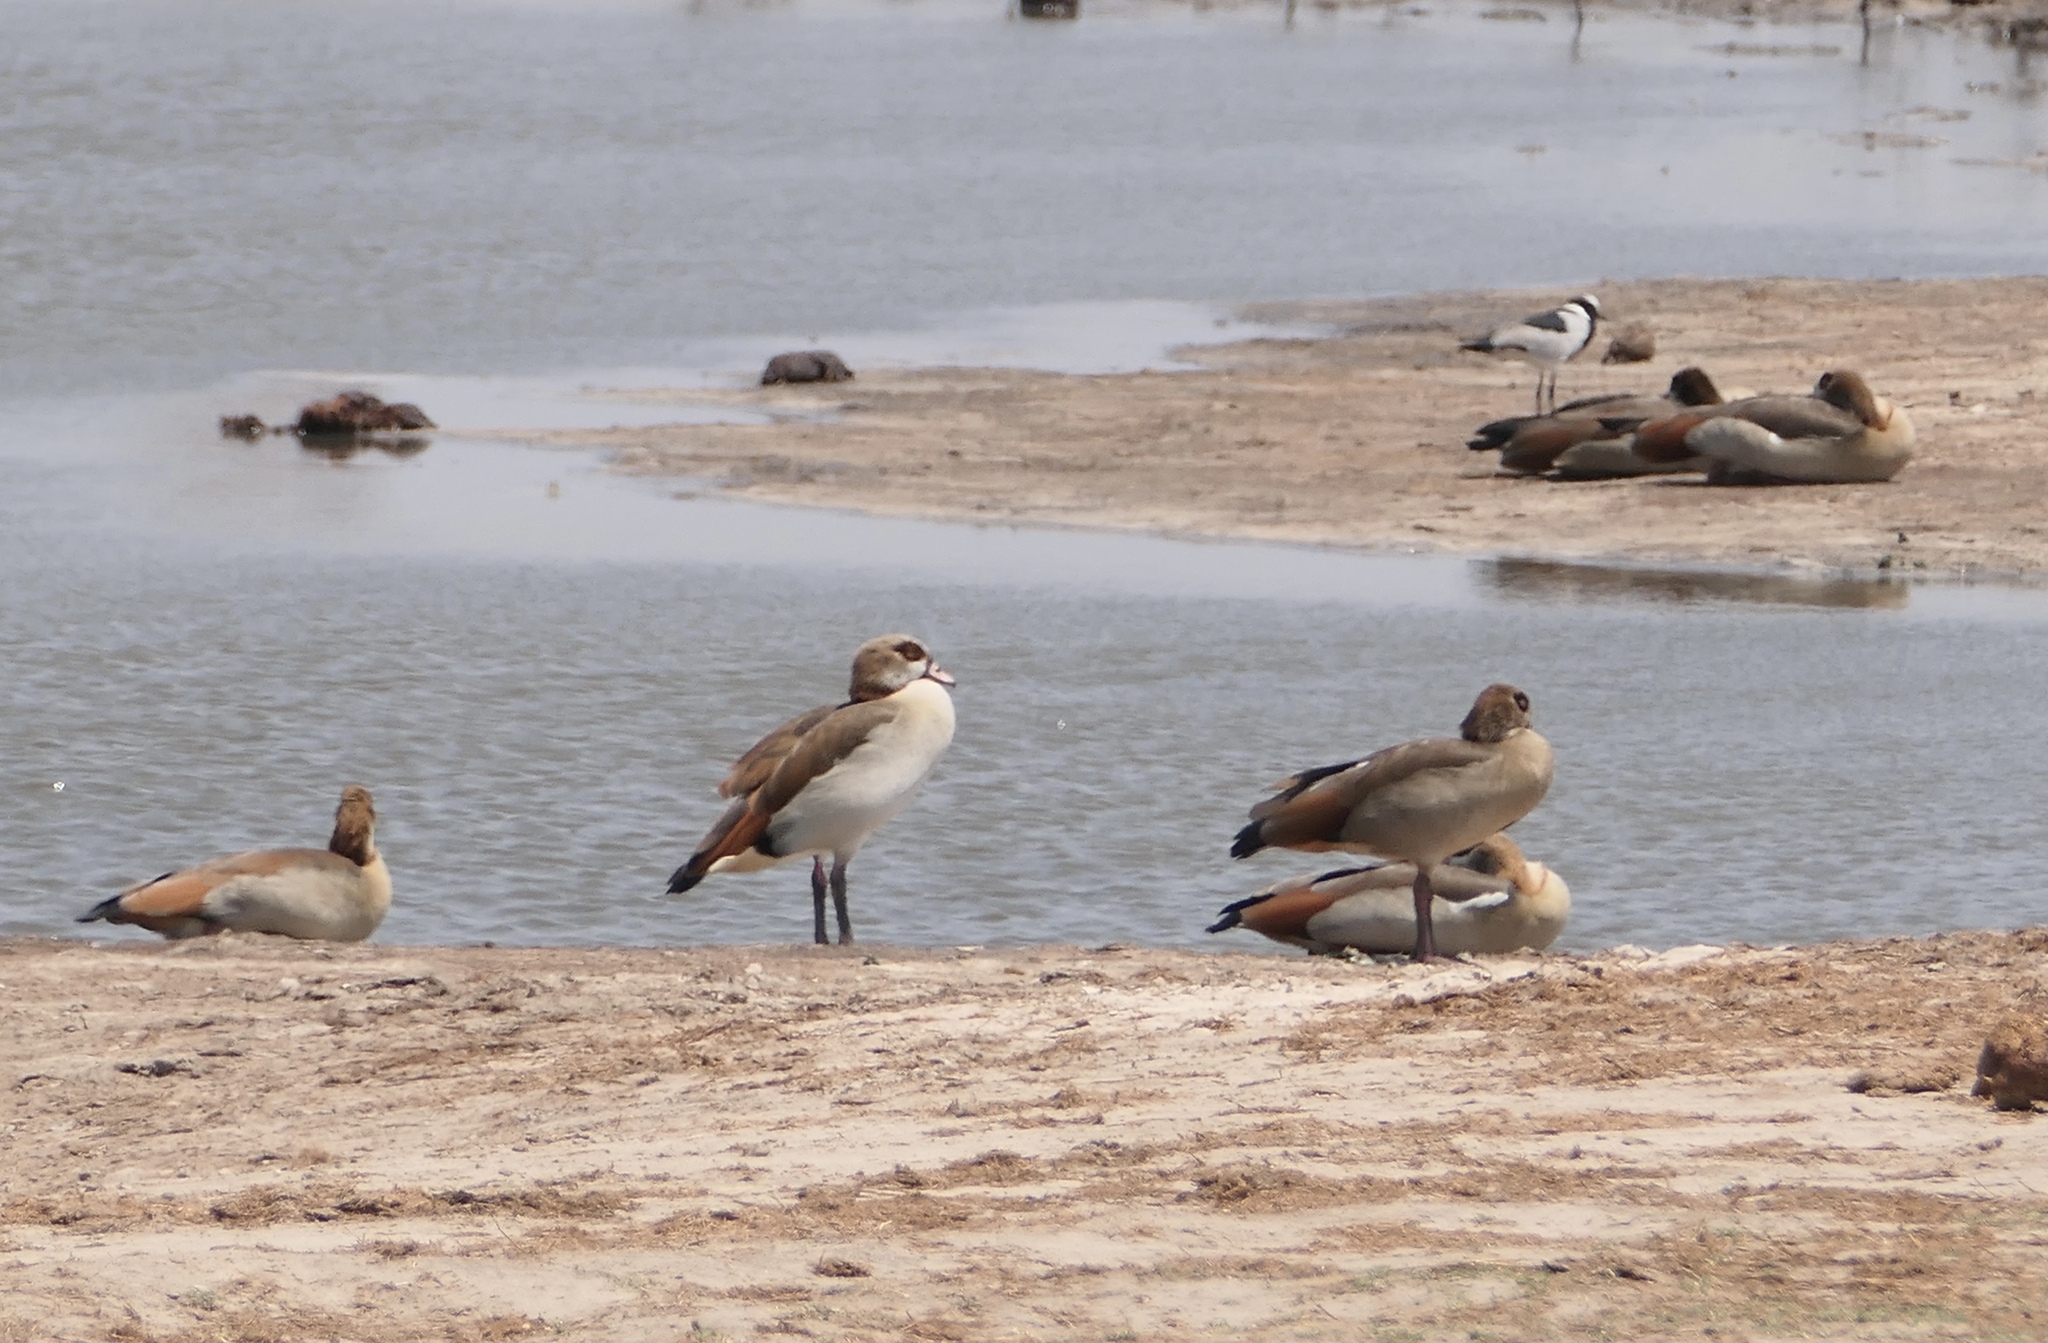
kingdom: Animalia
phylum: Chordata
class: Aves
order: Charadriiformes
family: Charadriidae
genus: Vanellus
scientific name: Vanellus armatus
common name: Blacksmith lapwing
